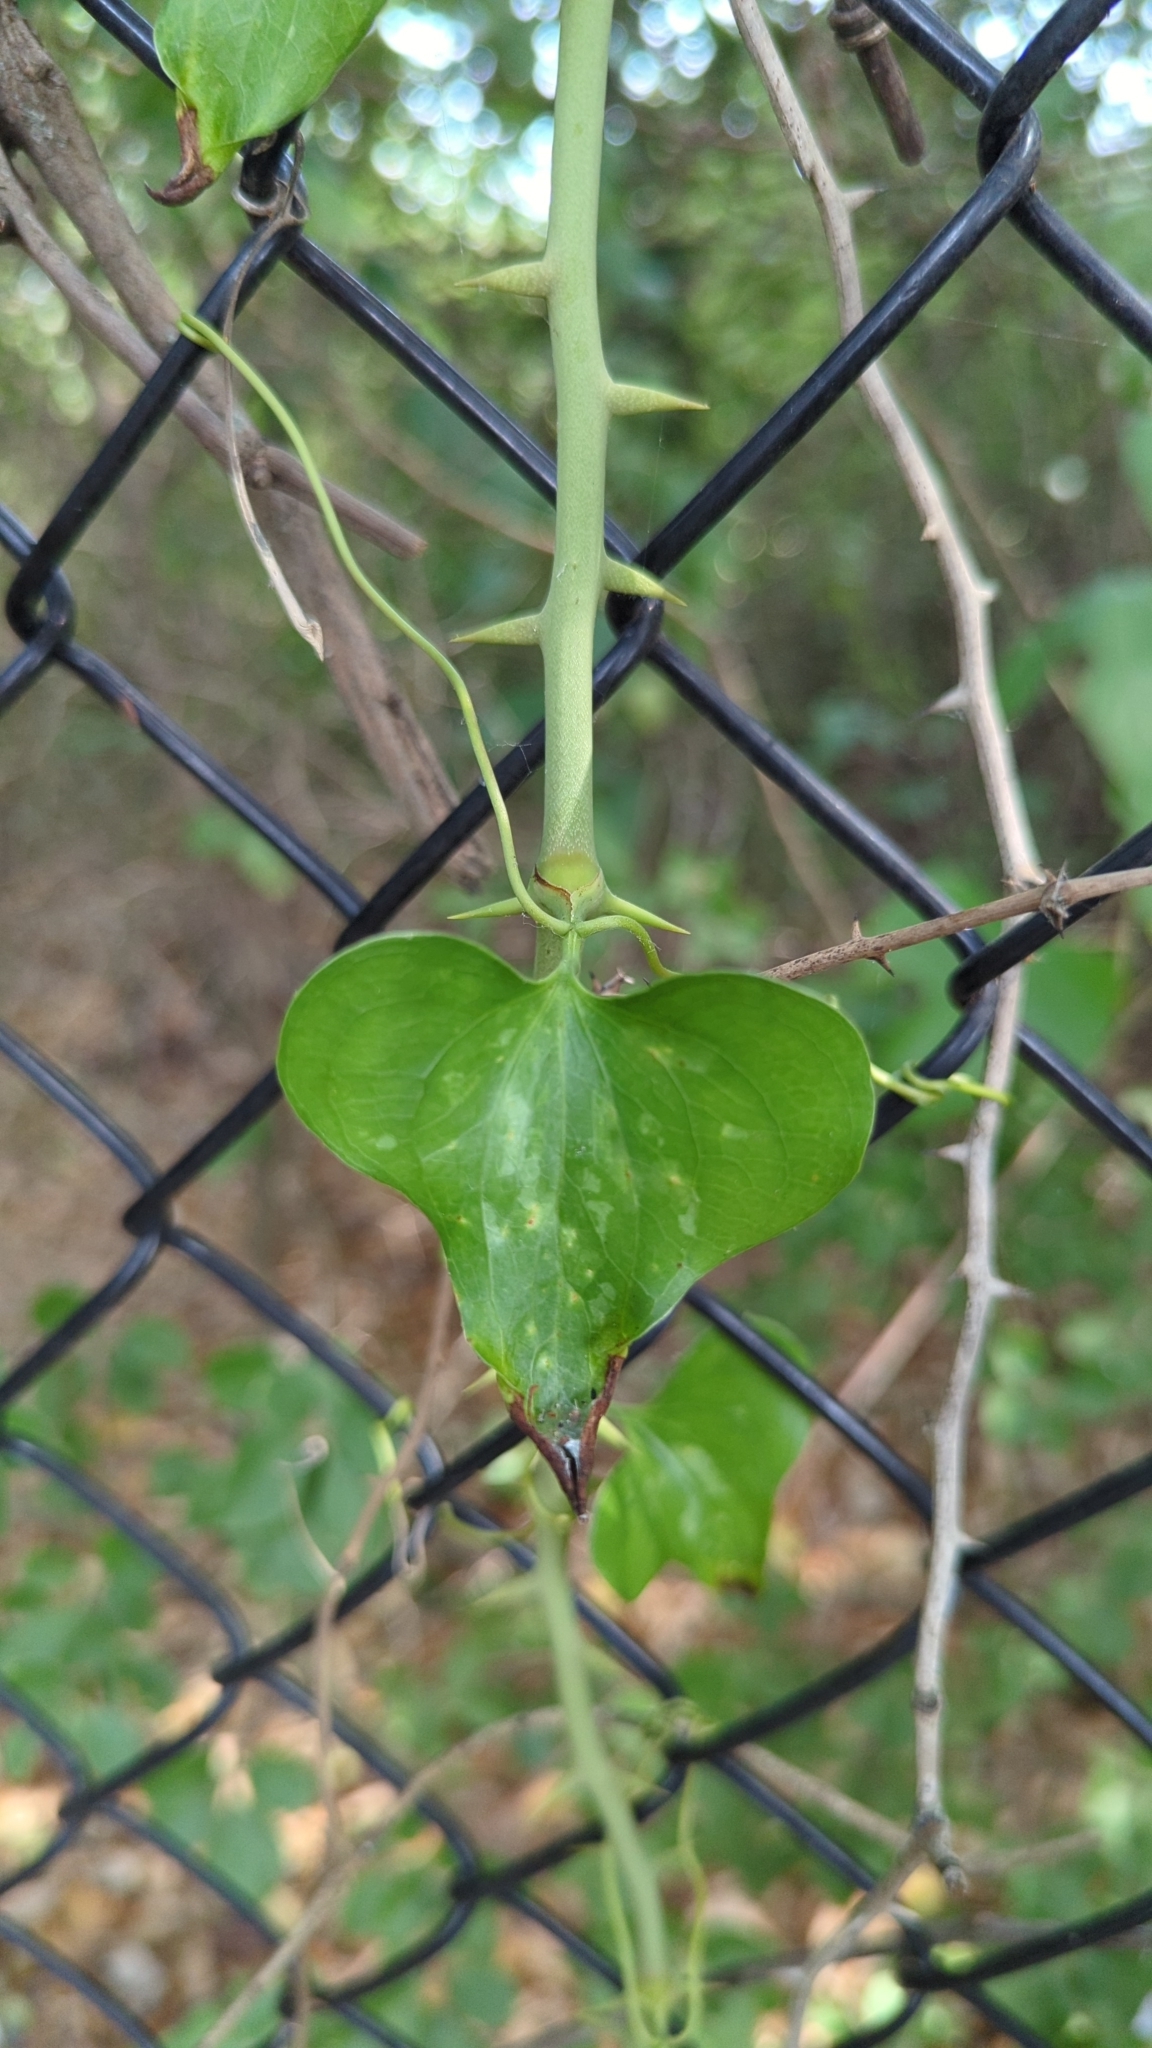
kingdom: Plantae
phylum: Tracheophyta
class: Liliopsida
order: Liliales
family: Smilacaceae
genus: Smilax
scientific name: Smilax bona-nox
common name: Catbrier
